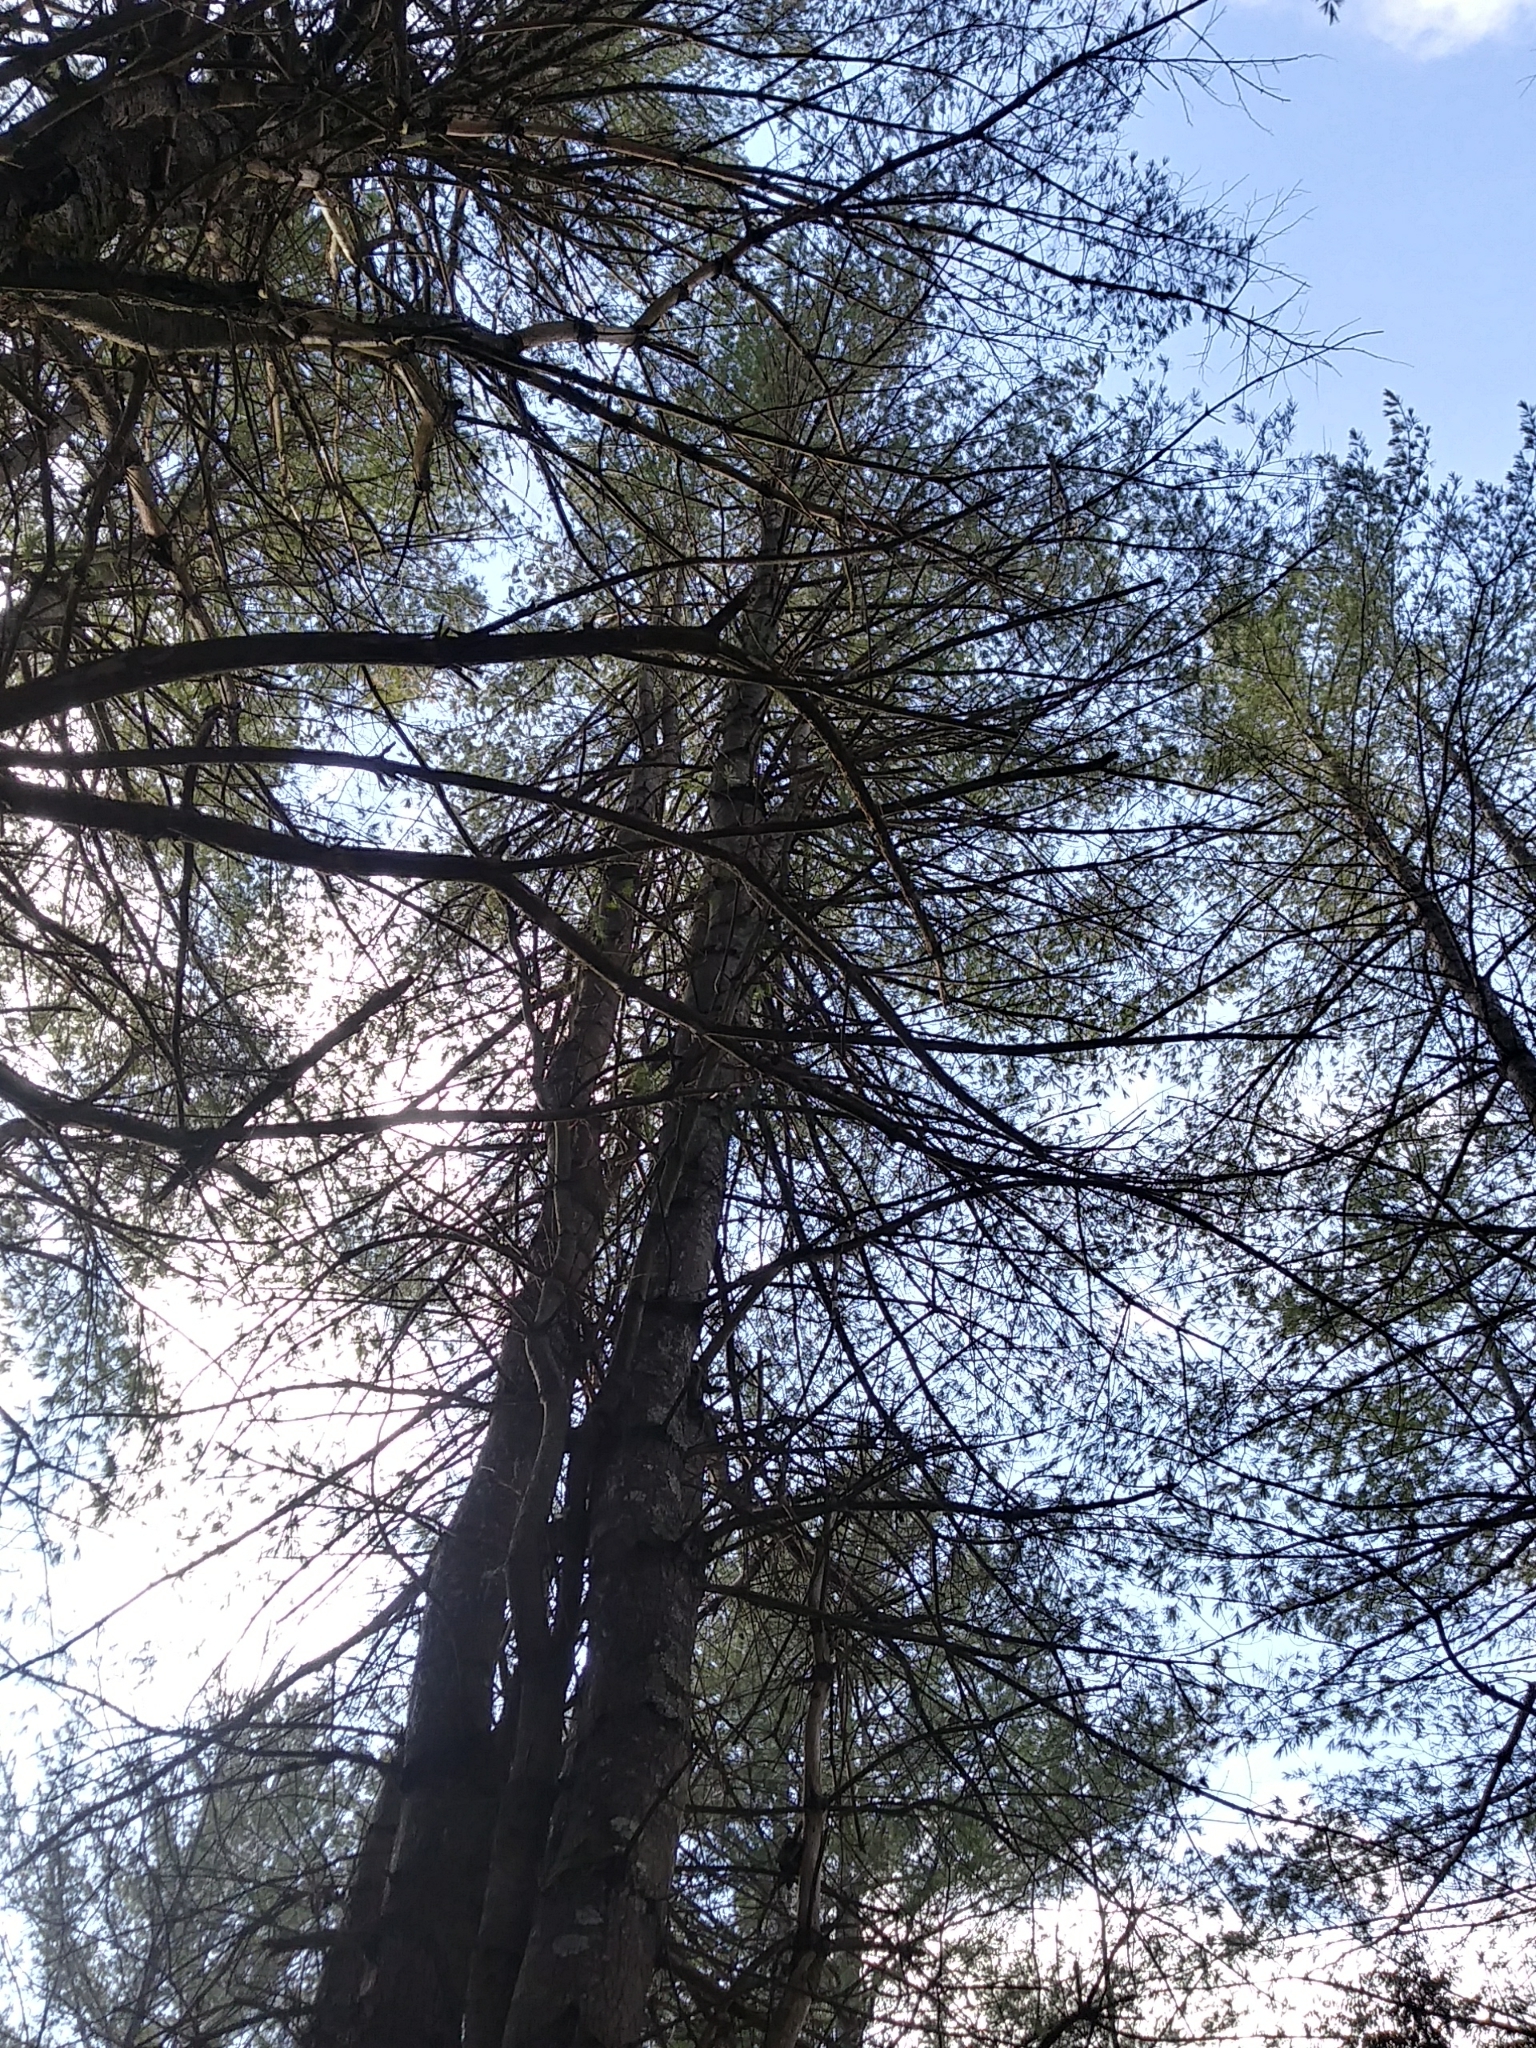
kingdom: Plantae
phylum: Tracheophyta
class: Pinopsida
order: Pinales
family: Pinaceae
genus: Pinus
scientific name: Pinus strobus
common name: Weymouth pine
